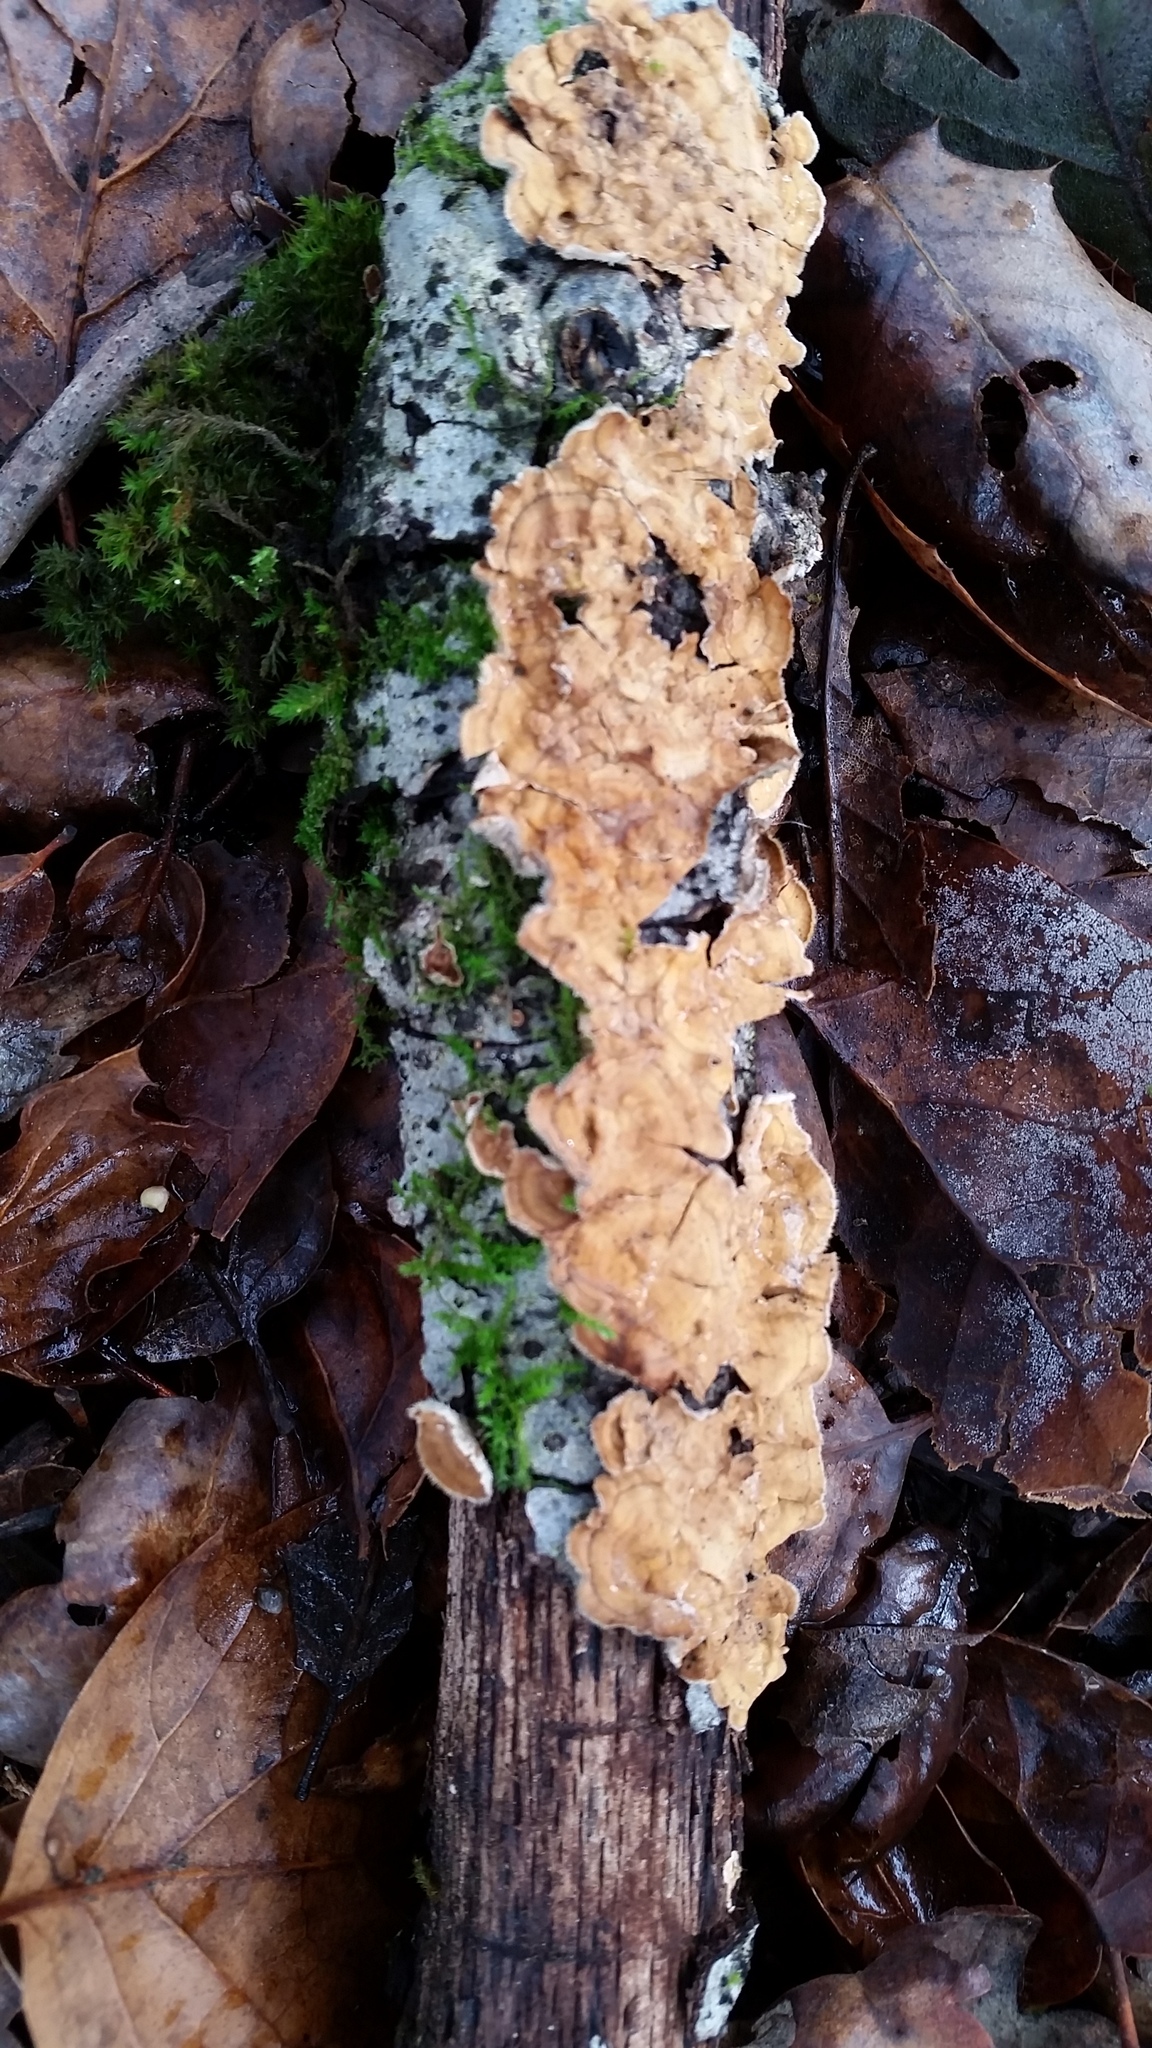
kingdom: Fungi
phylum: Basidiomycota
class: Agaricomycetes
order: Russulales
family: Stereaceae
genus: Stereum
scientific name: Stereum hirsutum
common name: Hairy curtain crust
